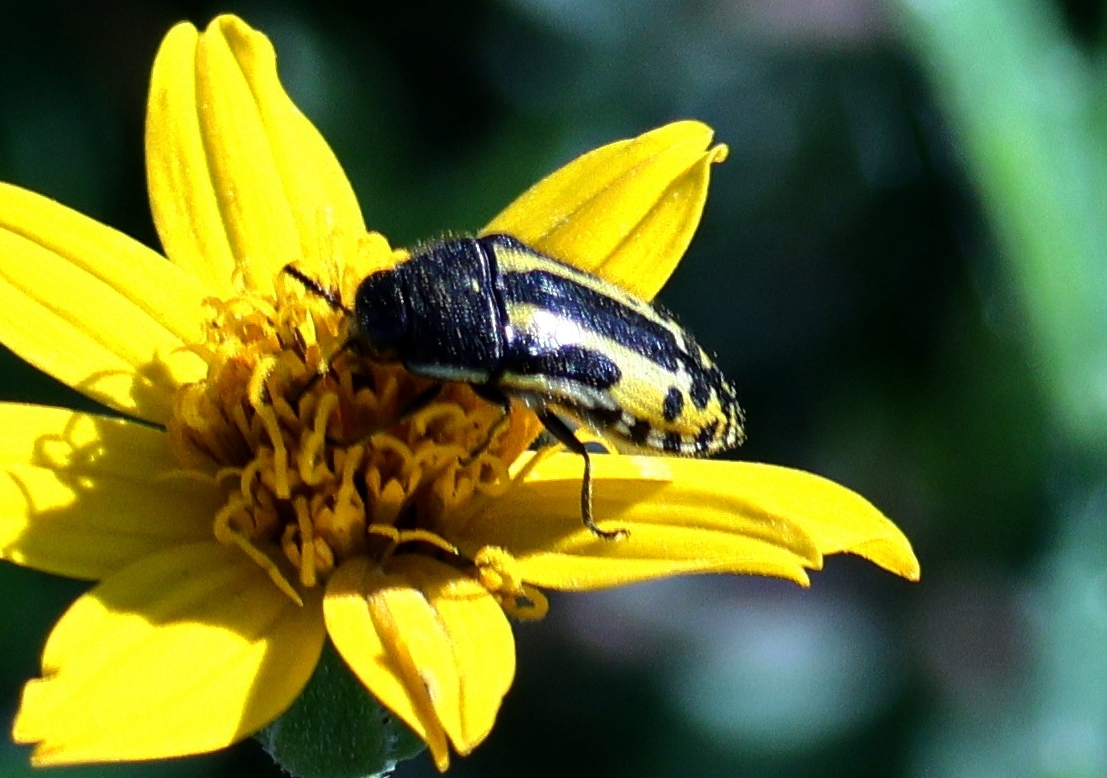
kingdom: Animalia
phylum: Arthropoda
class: Insecta
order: Coleoptera
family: Buprestidae
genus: Acmaeodera
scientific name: Acmaeodera scalaris
